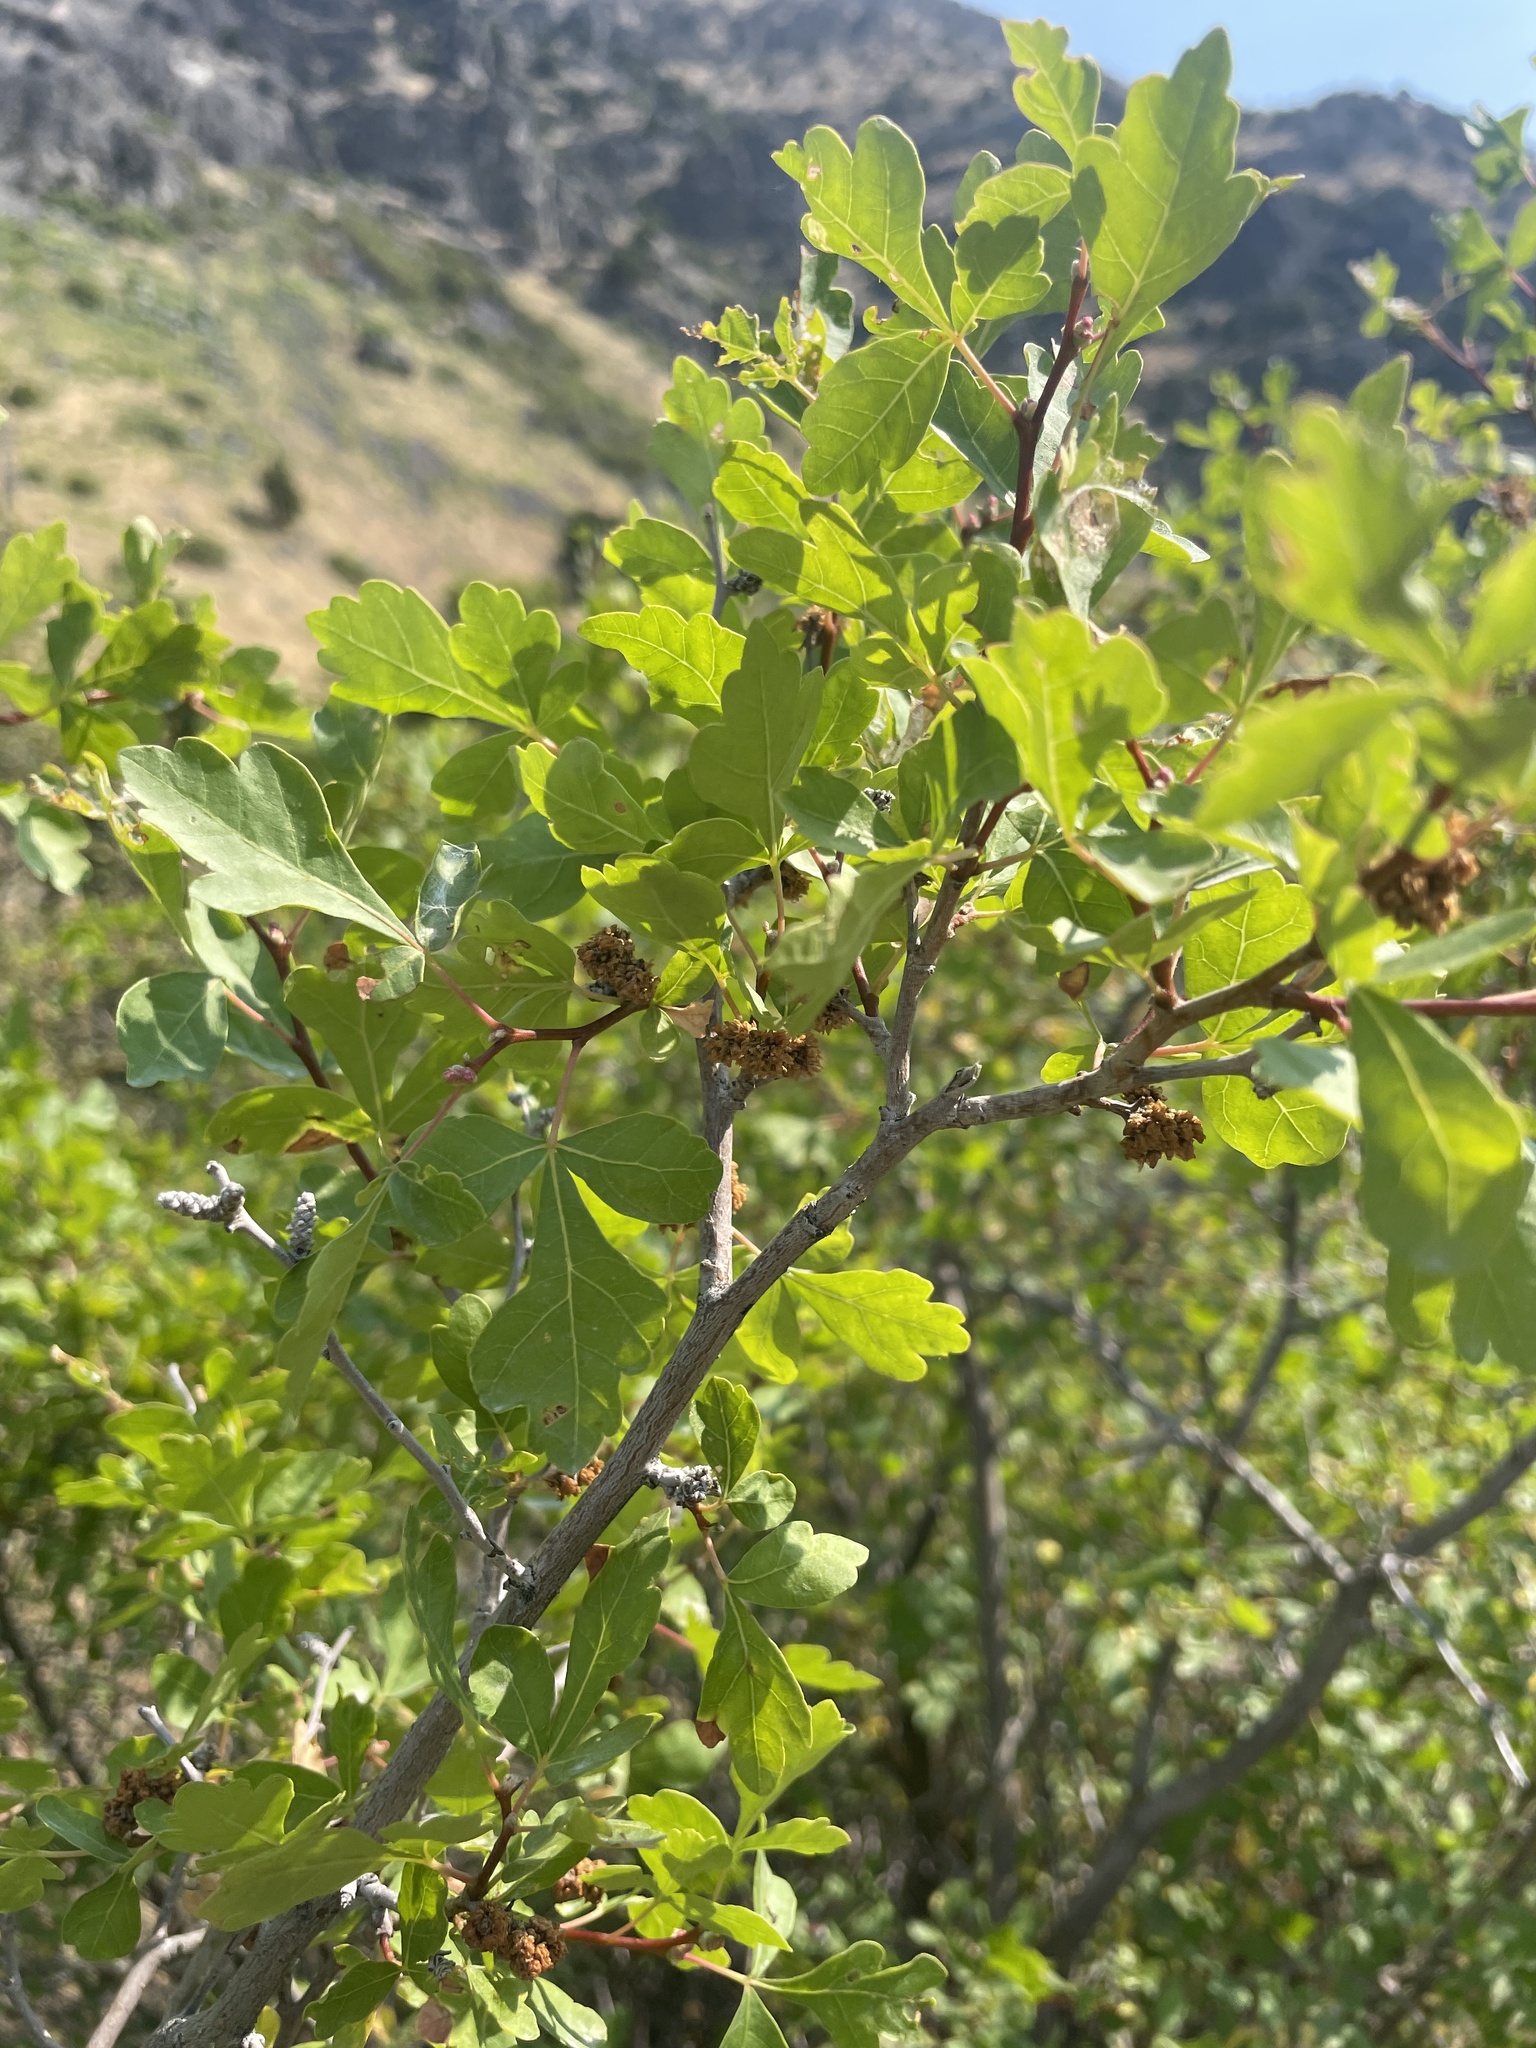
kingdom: Plantae
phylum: Tracheophyta
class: Magnoliopsida
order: Sapindales
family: Anacardiaceae
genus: Rhus
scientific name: Rhus trilobata
